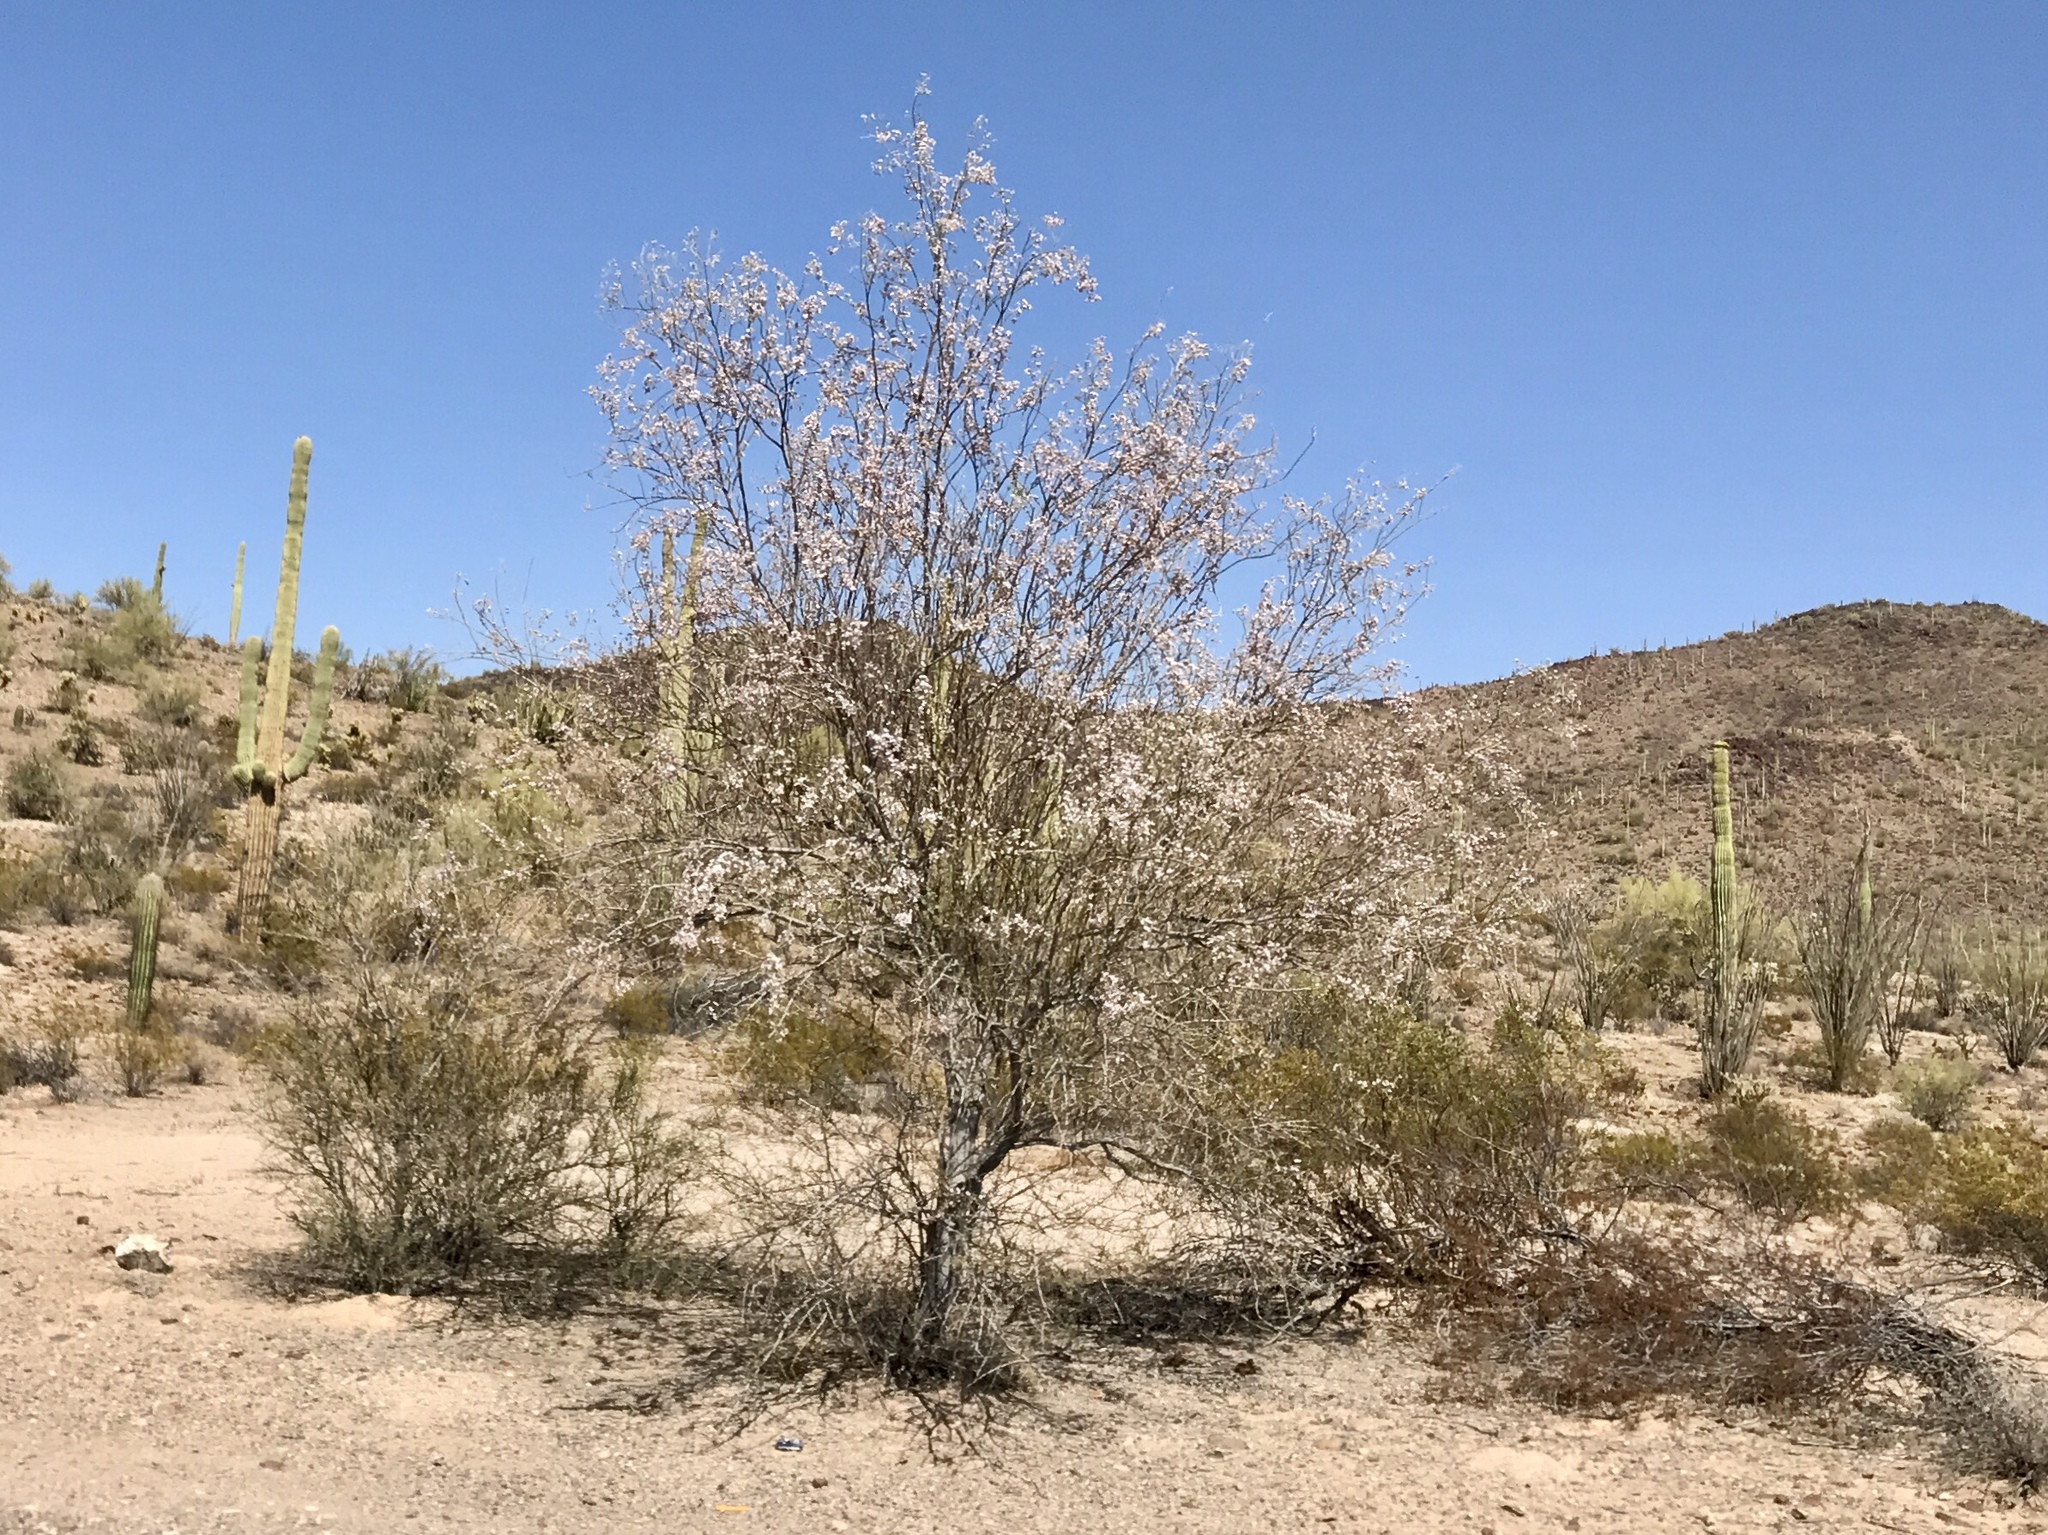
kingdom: Plantae
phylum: Tracheophyta
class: Magnoliopsida
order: Fabales
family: Fabaceae
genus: Olneya
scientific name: Olneya tesota
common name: Desert ironwood
